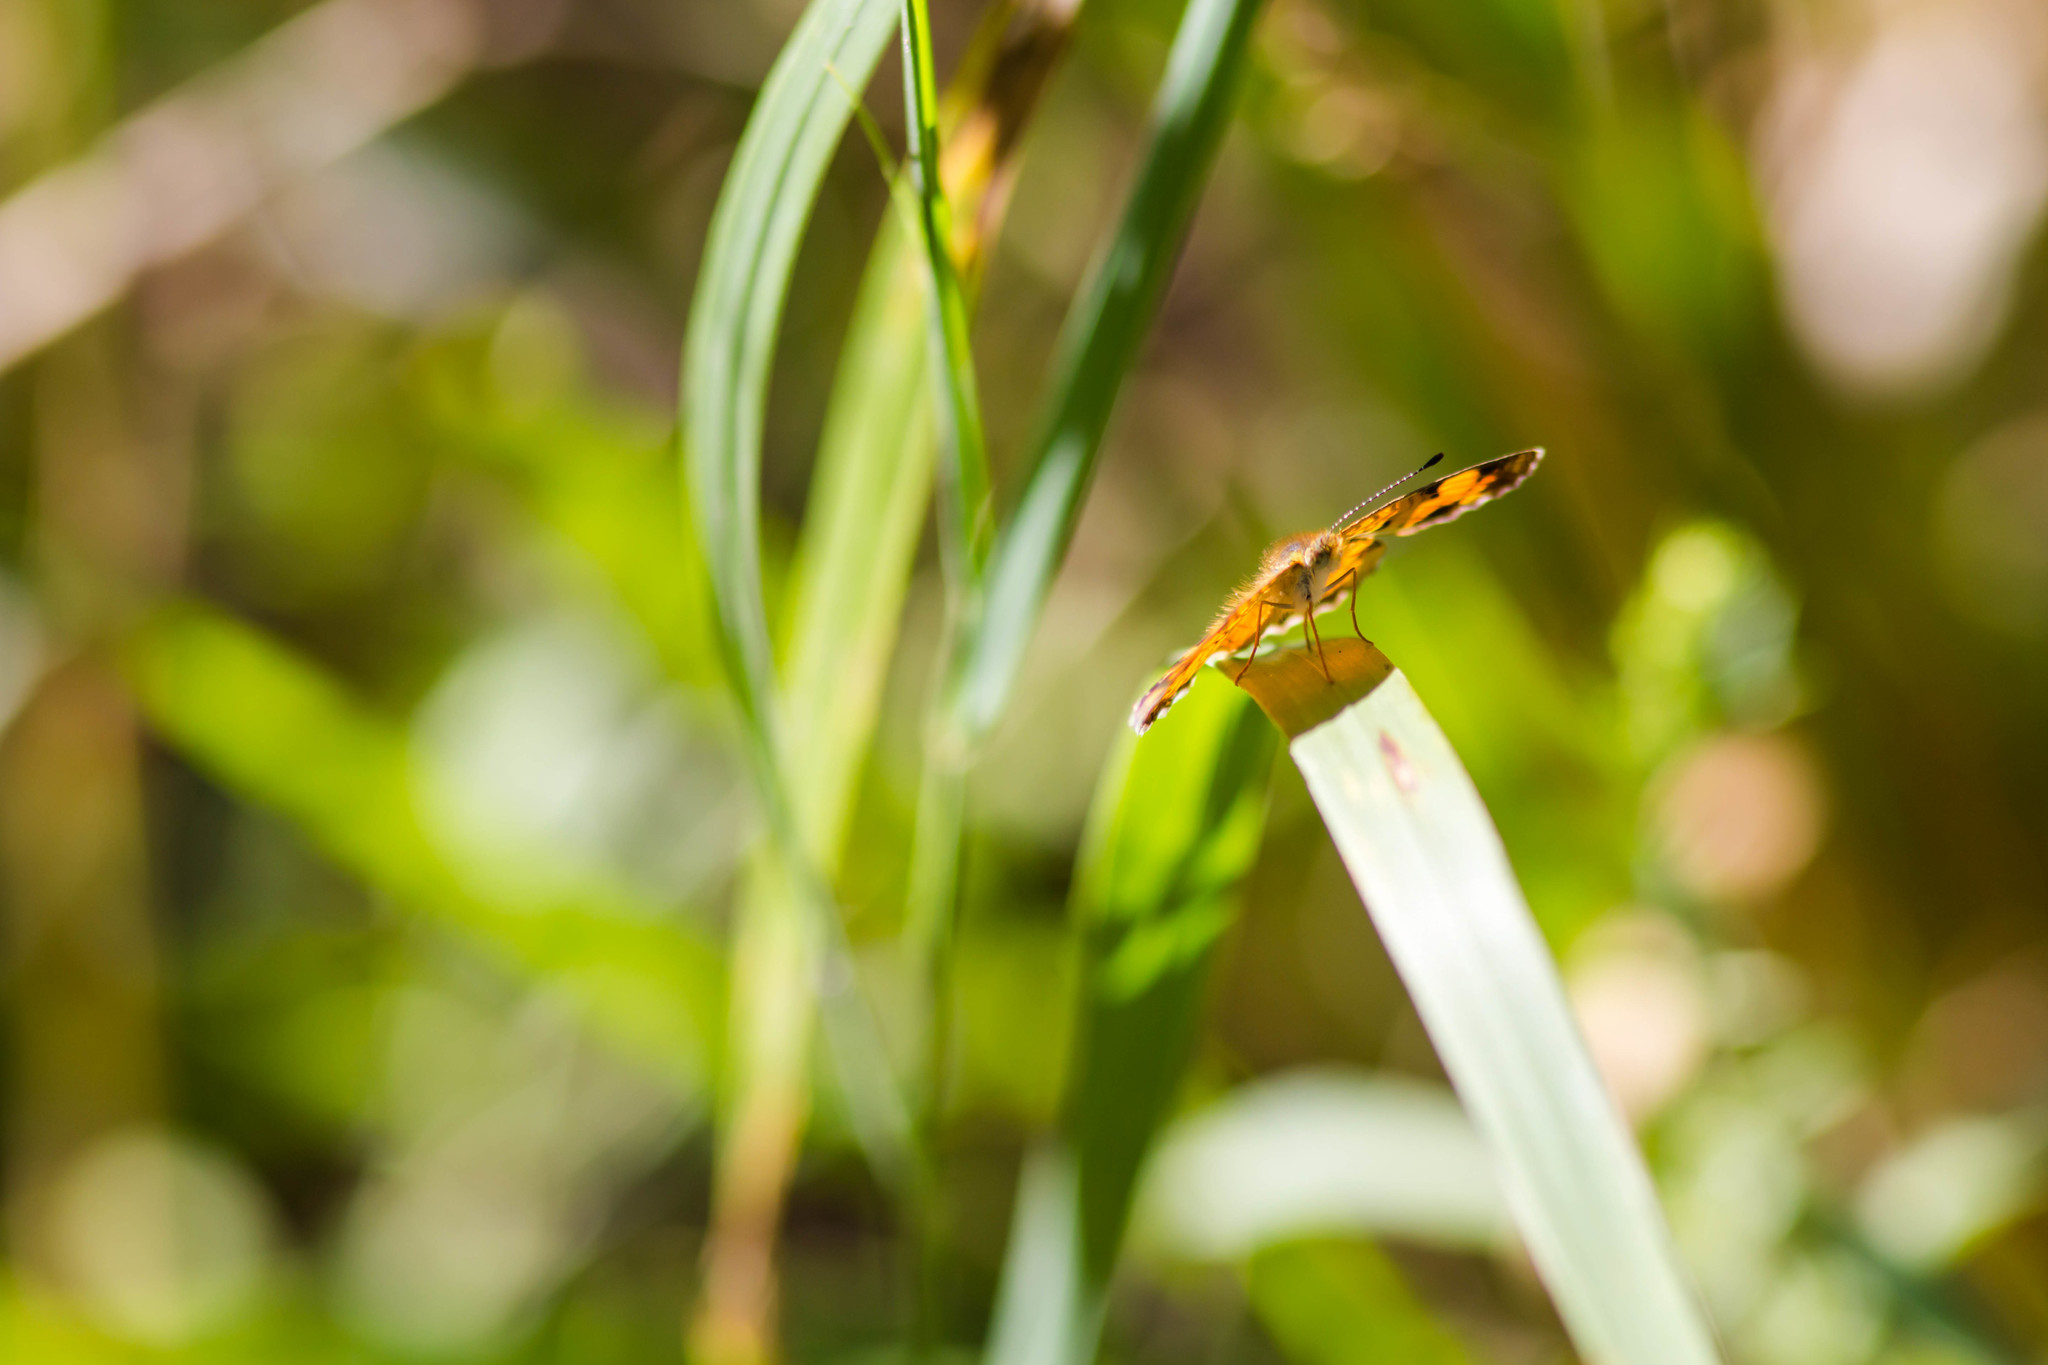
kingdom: Animalia
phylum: Arthropoda
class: Insecta
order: Lepidoptera
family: Nymphalidae
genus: Phyciodes
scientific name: Phyciodes tharos
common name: Pearl crescent
